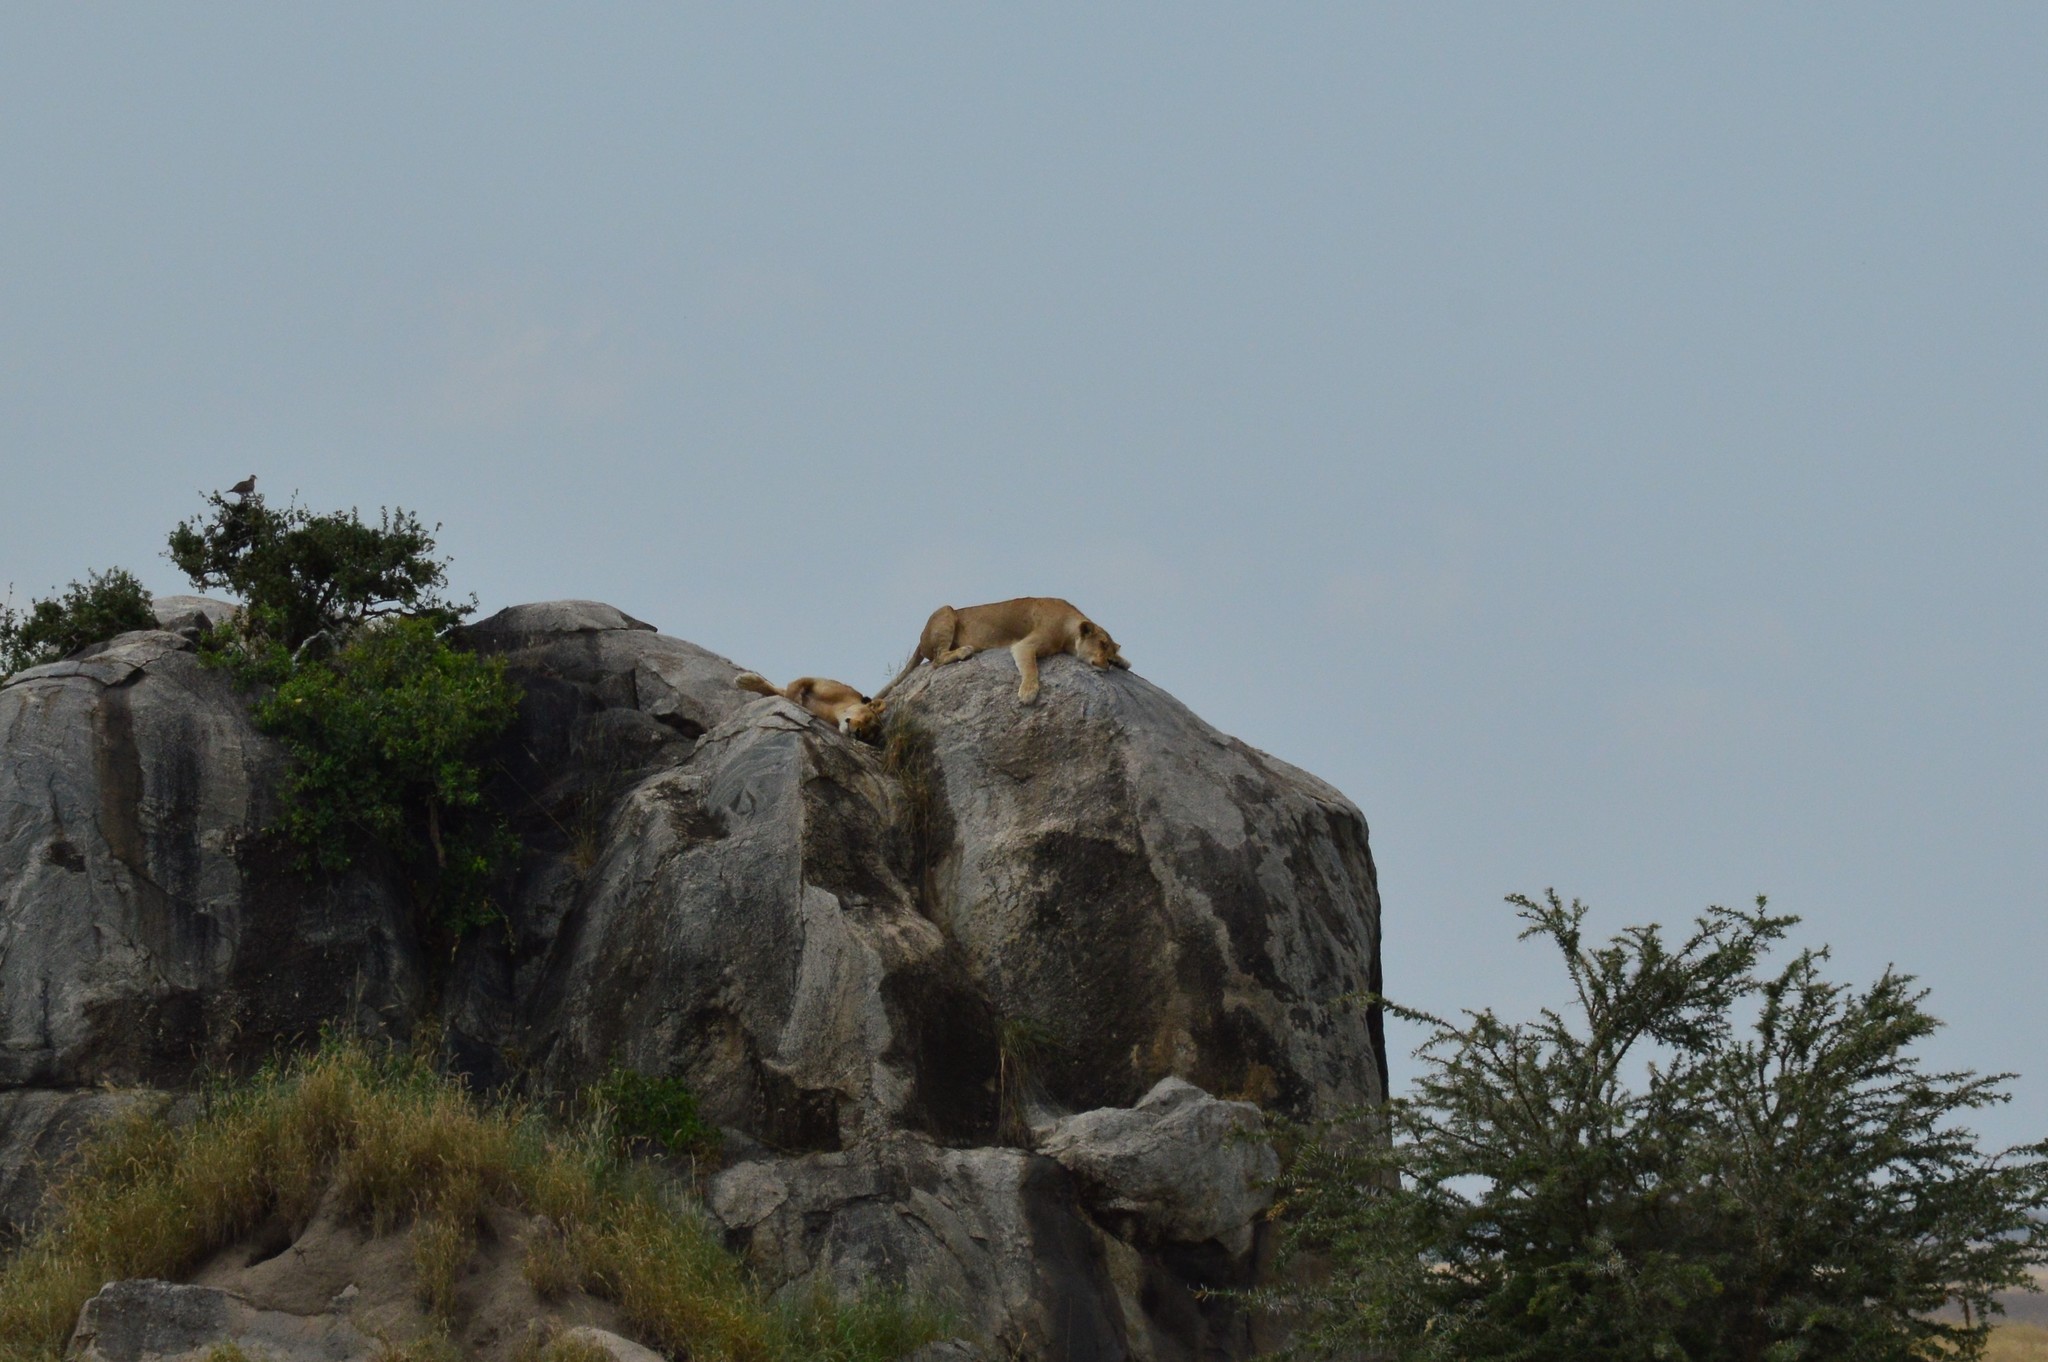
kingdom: Animalia
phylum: Chordata
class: Mammalia
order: Carnivora
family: Felidae
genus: Panthera
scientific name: Panthera leo
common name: Lion
